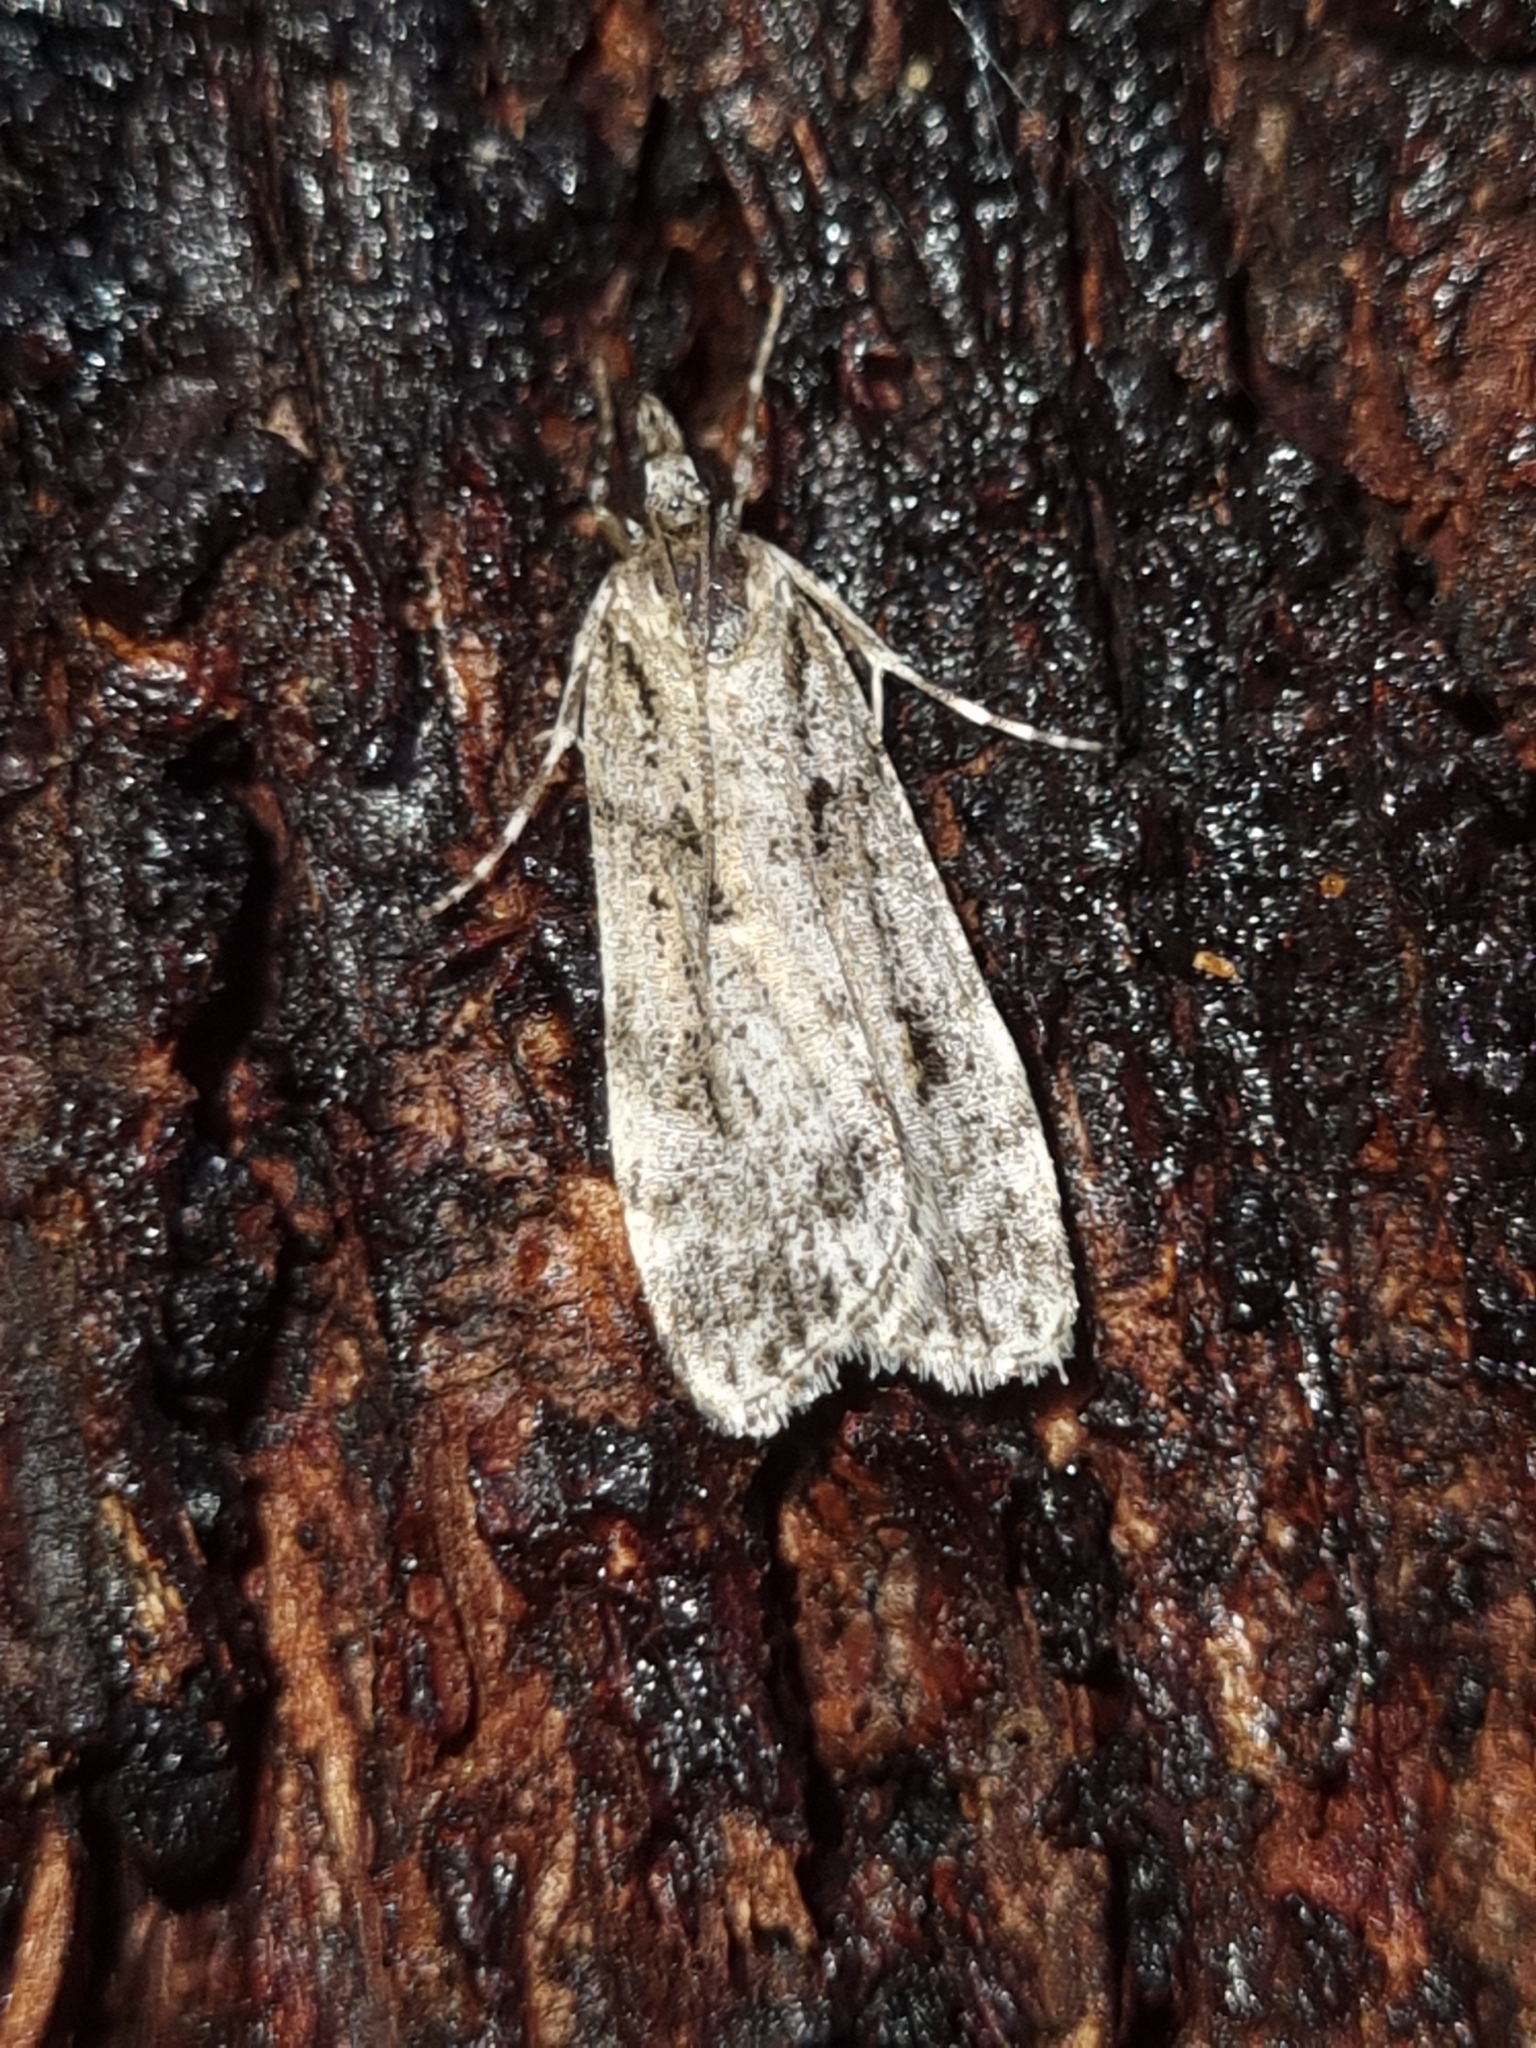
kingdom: Animalia
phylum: Arthropoda
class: Insecta
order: Lepidoptera
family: Crambidae
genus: Scoparia
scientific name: Scoparia chiasta
